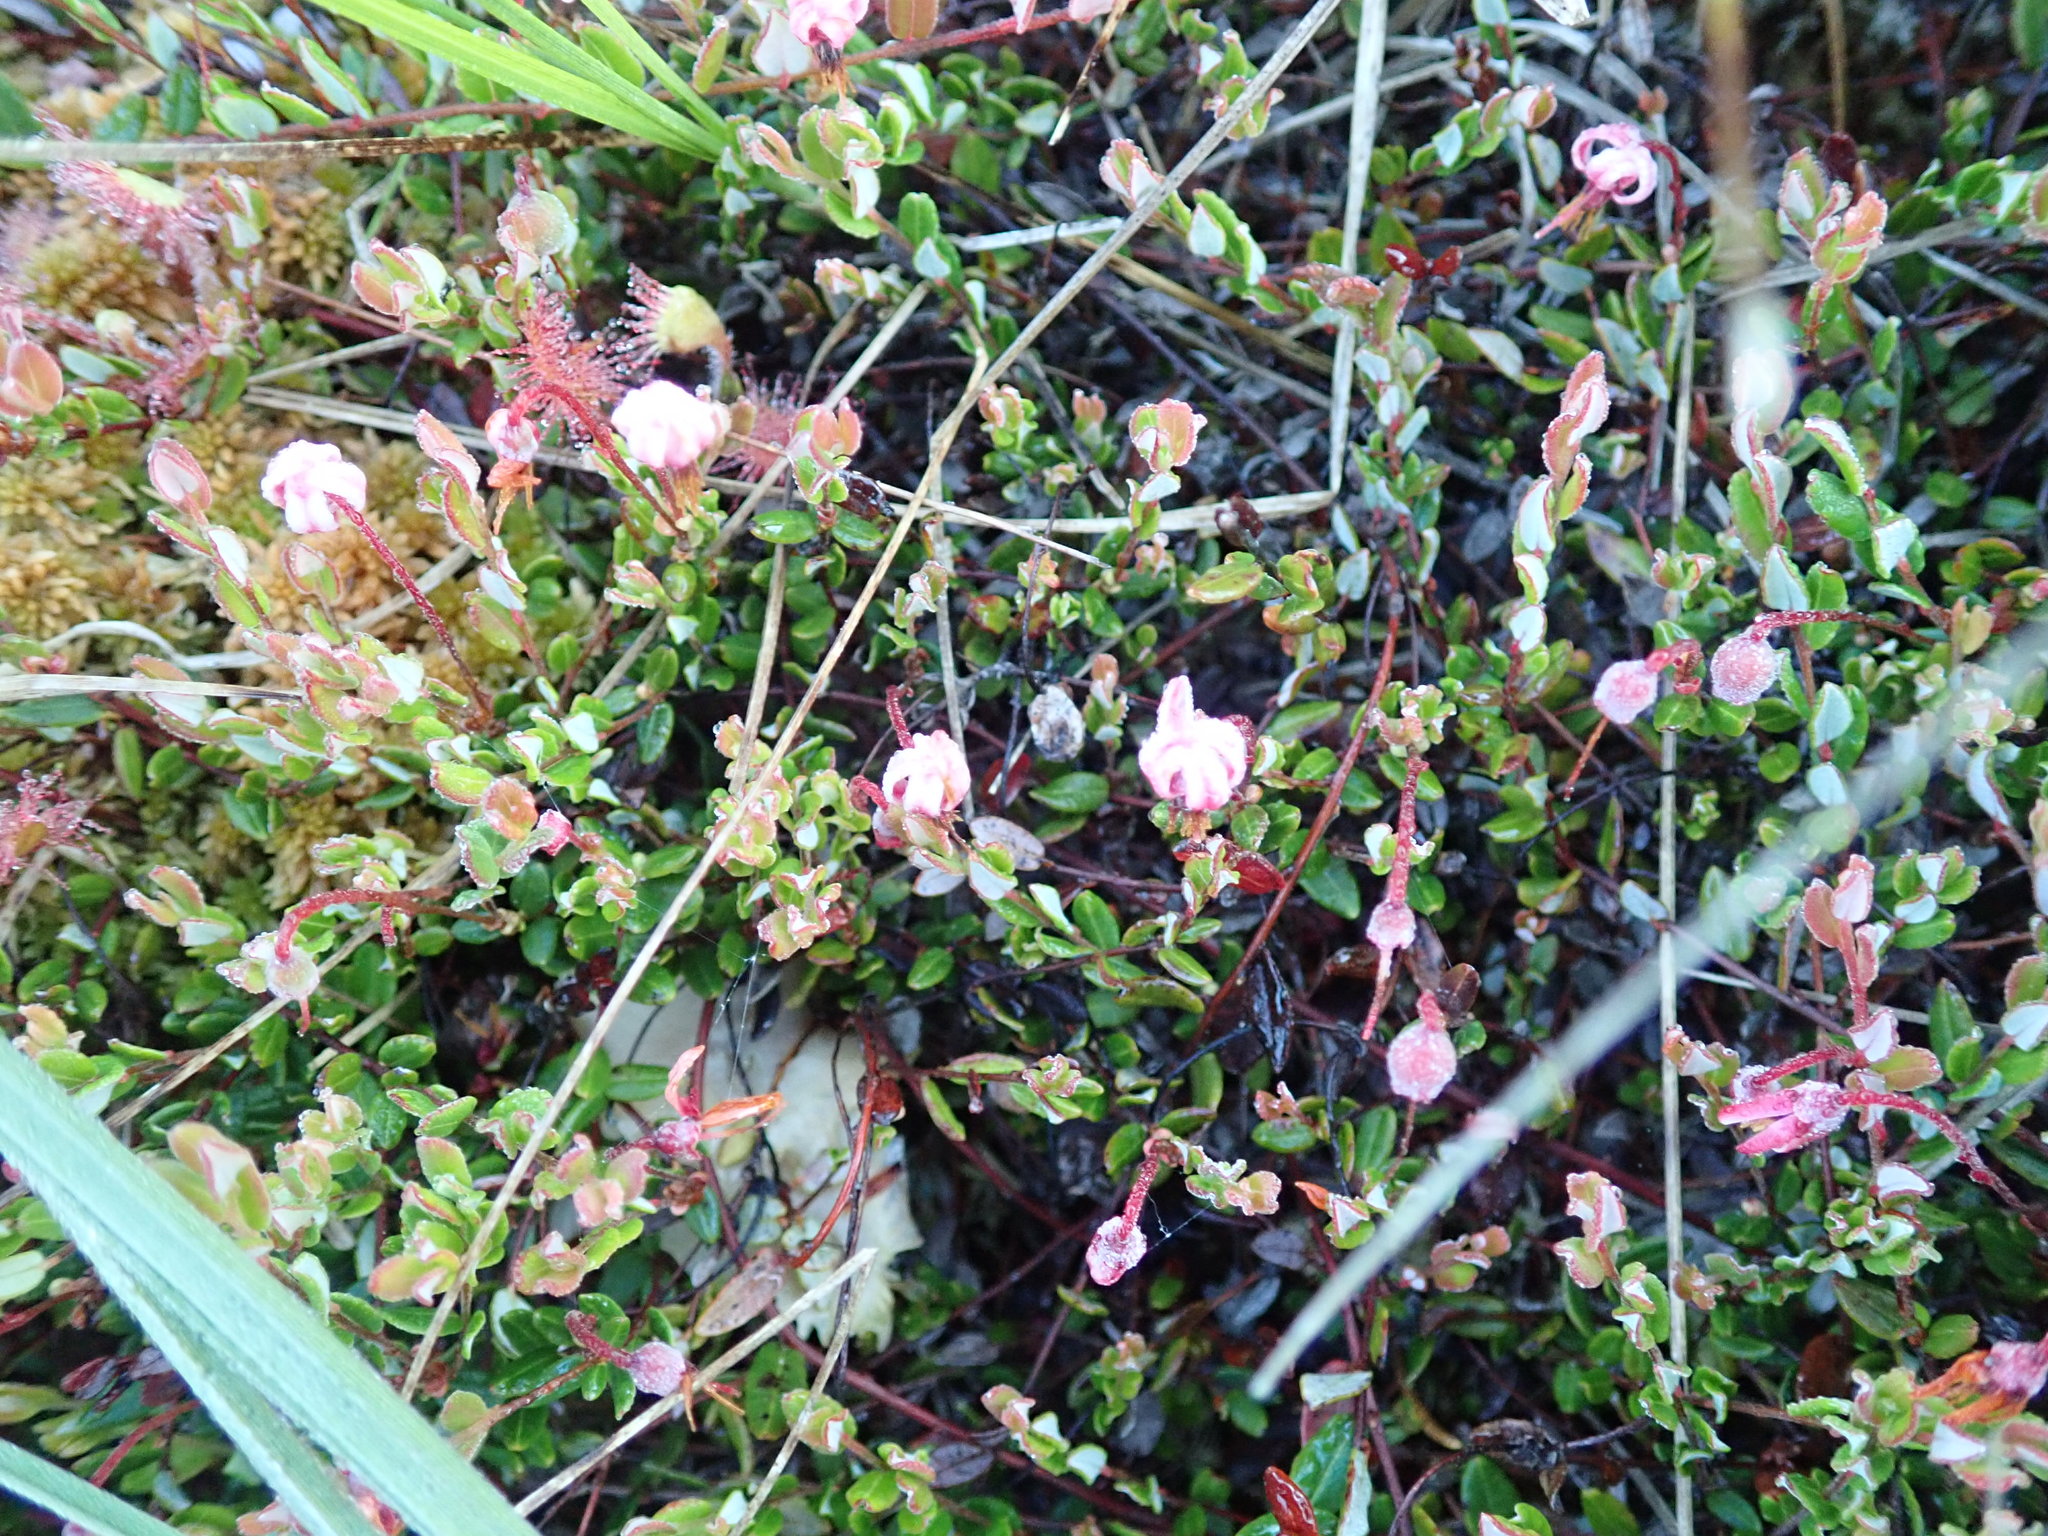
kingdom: Plantae
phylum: Tracheophyta
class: Magnoliopsida
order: Ericales
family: Ericaceae
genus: Vaccinium
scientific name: Vaccinium oxycoccos
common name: Cranberry
